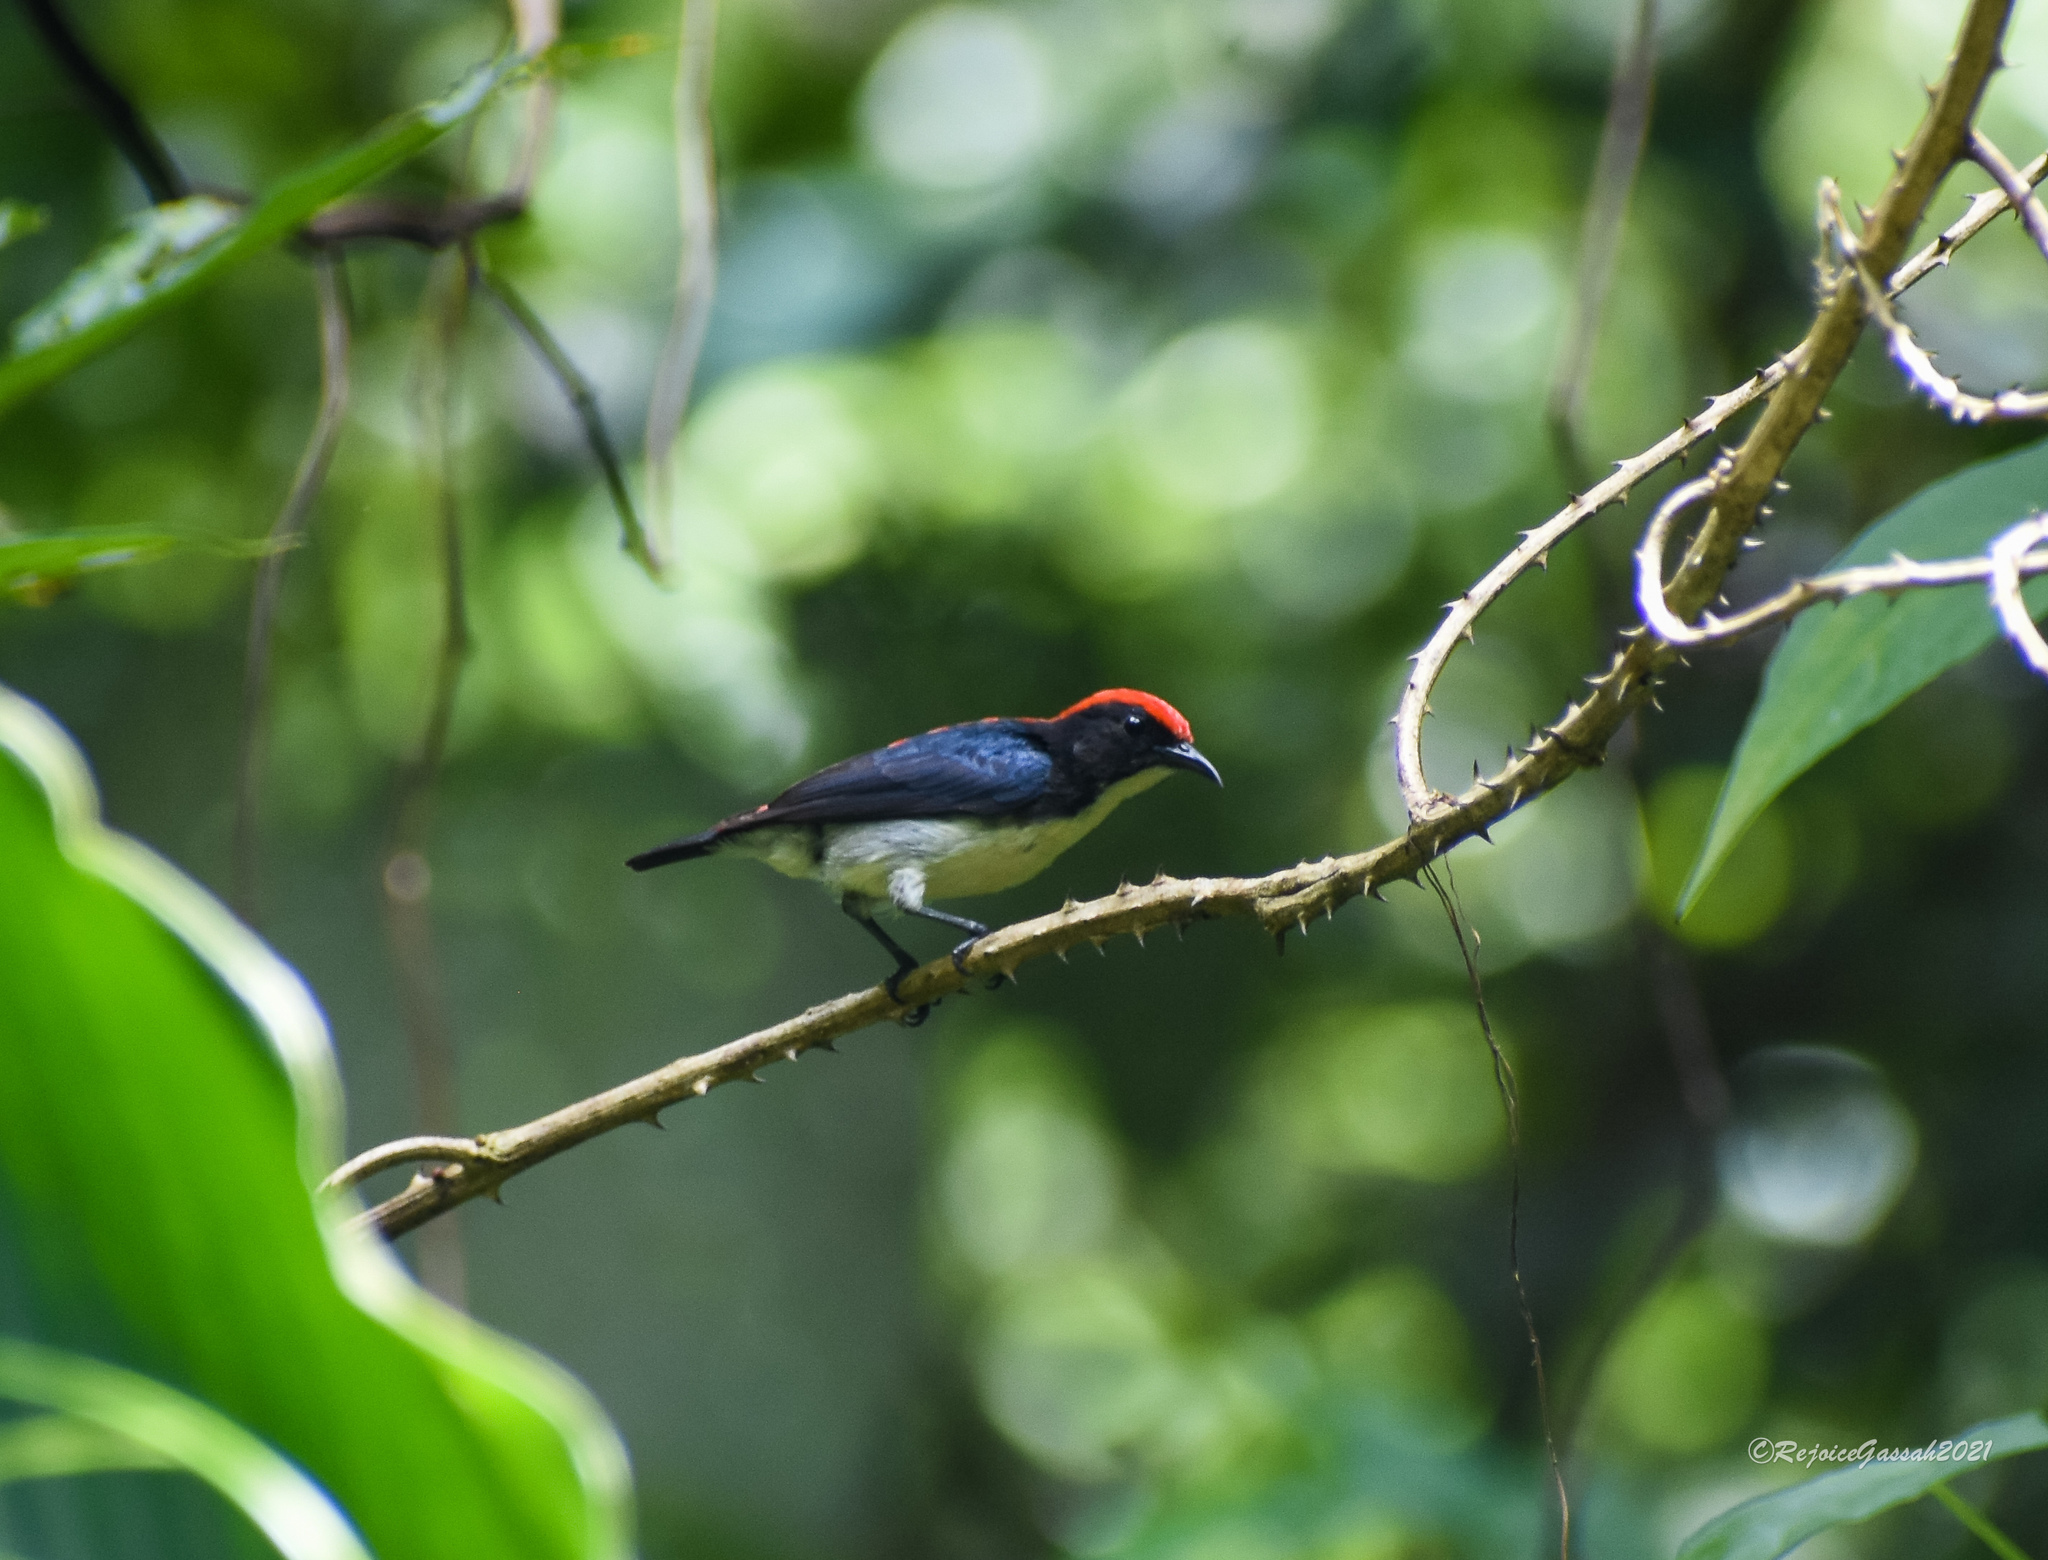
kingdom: Animalia
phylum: Chordata
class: Aves
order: Passeriformes
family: Dicaeidae
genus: Dicaeum
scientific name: Dicaeum cruentatum
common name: Scarlet-backed flowerpecker
